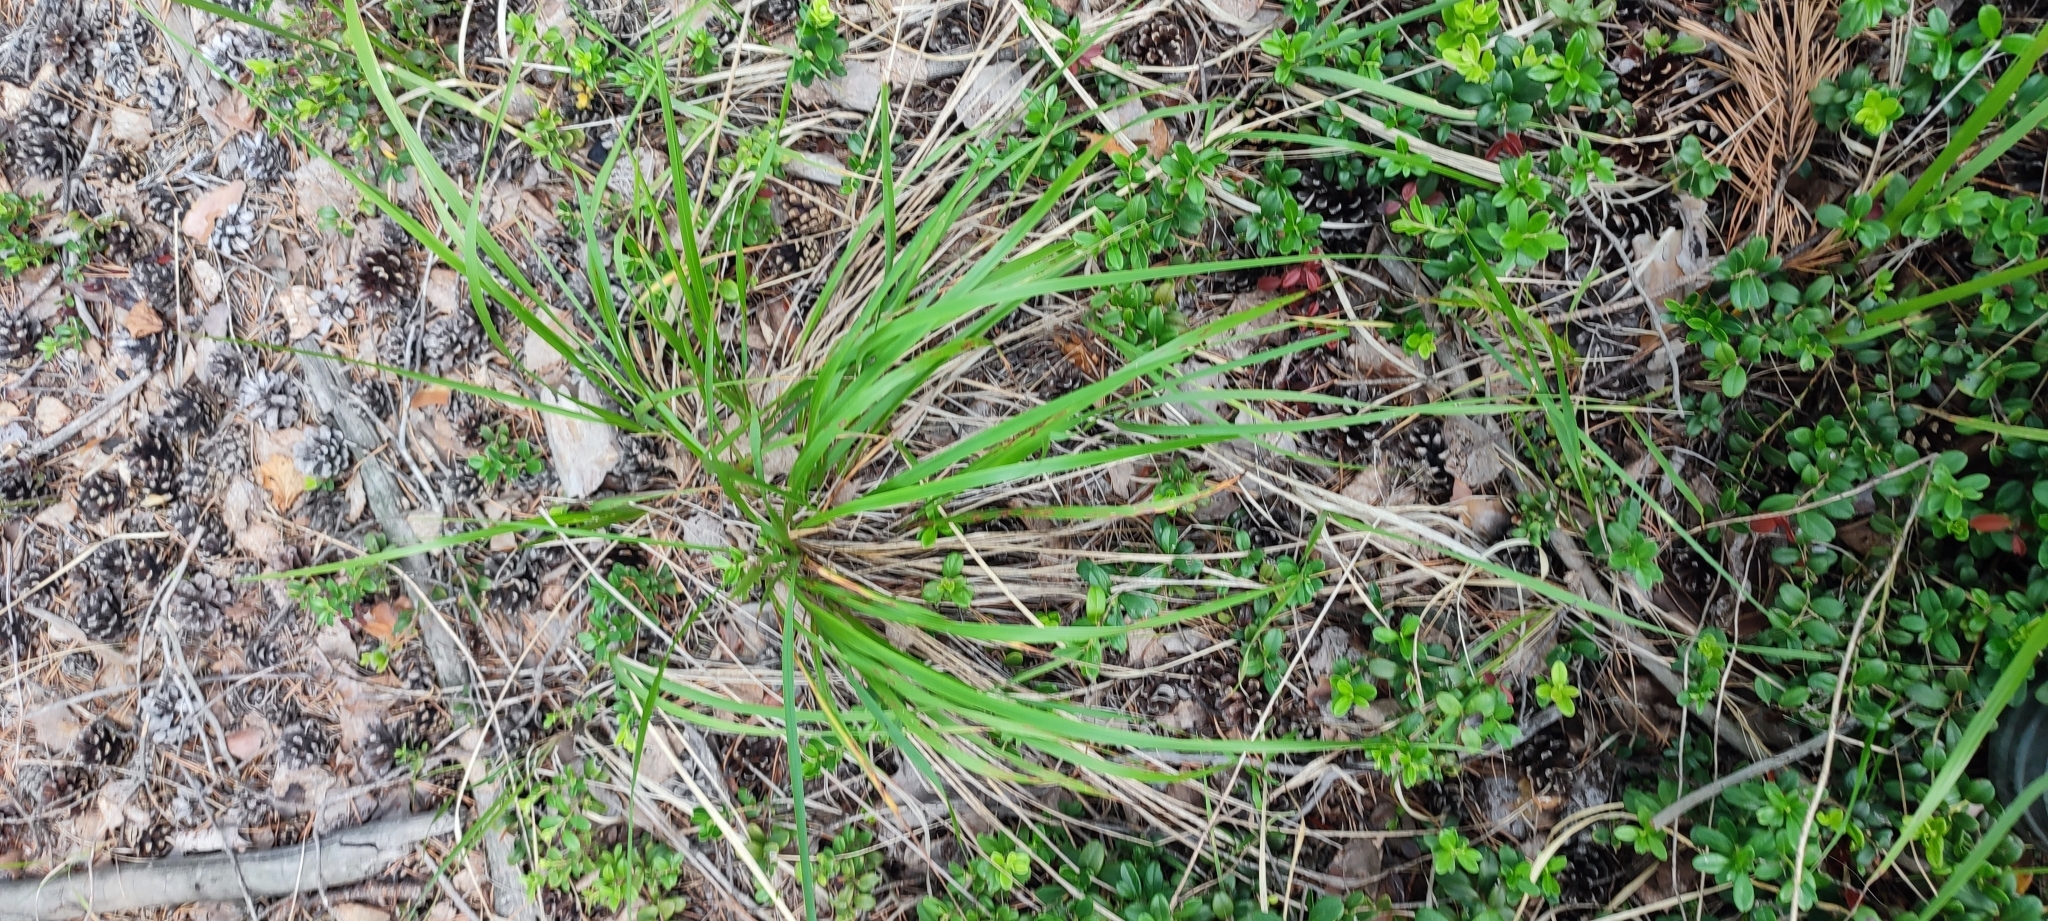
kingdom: Plantae
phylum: Tracheophyta
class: Liliopsida
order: Poales
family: Poaceae
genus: Calamagrostis
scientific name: Calamagrostis arundinacea
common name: Metskastik
